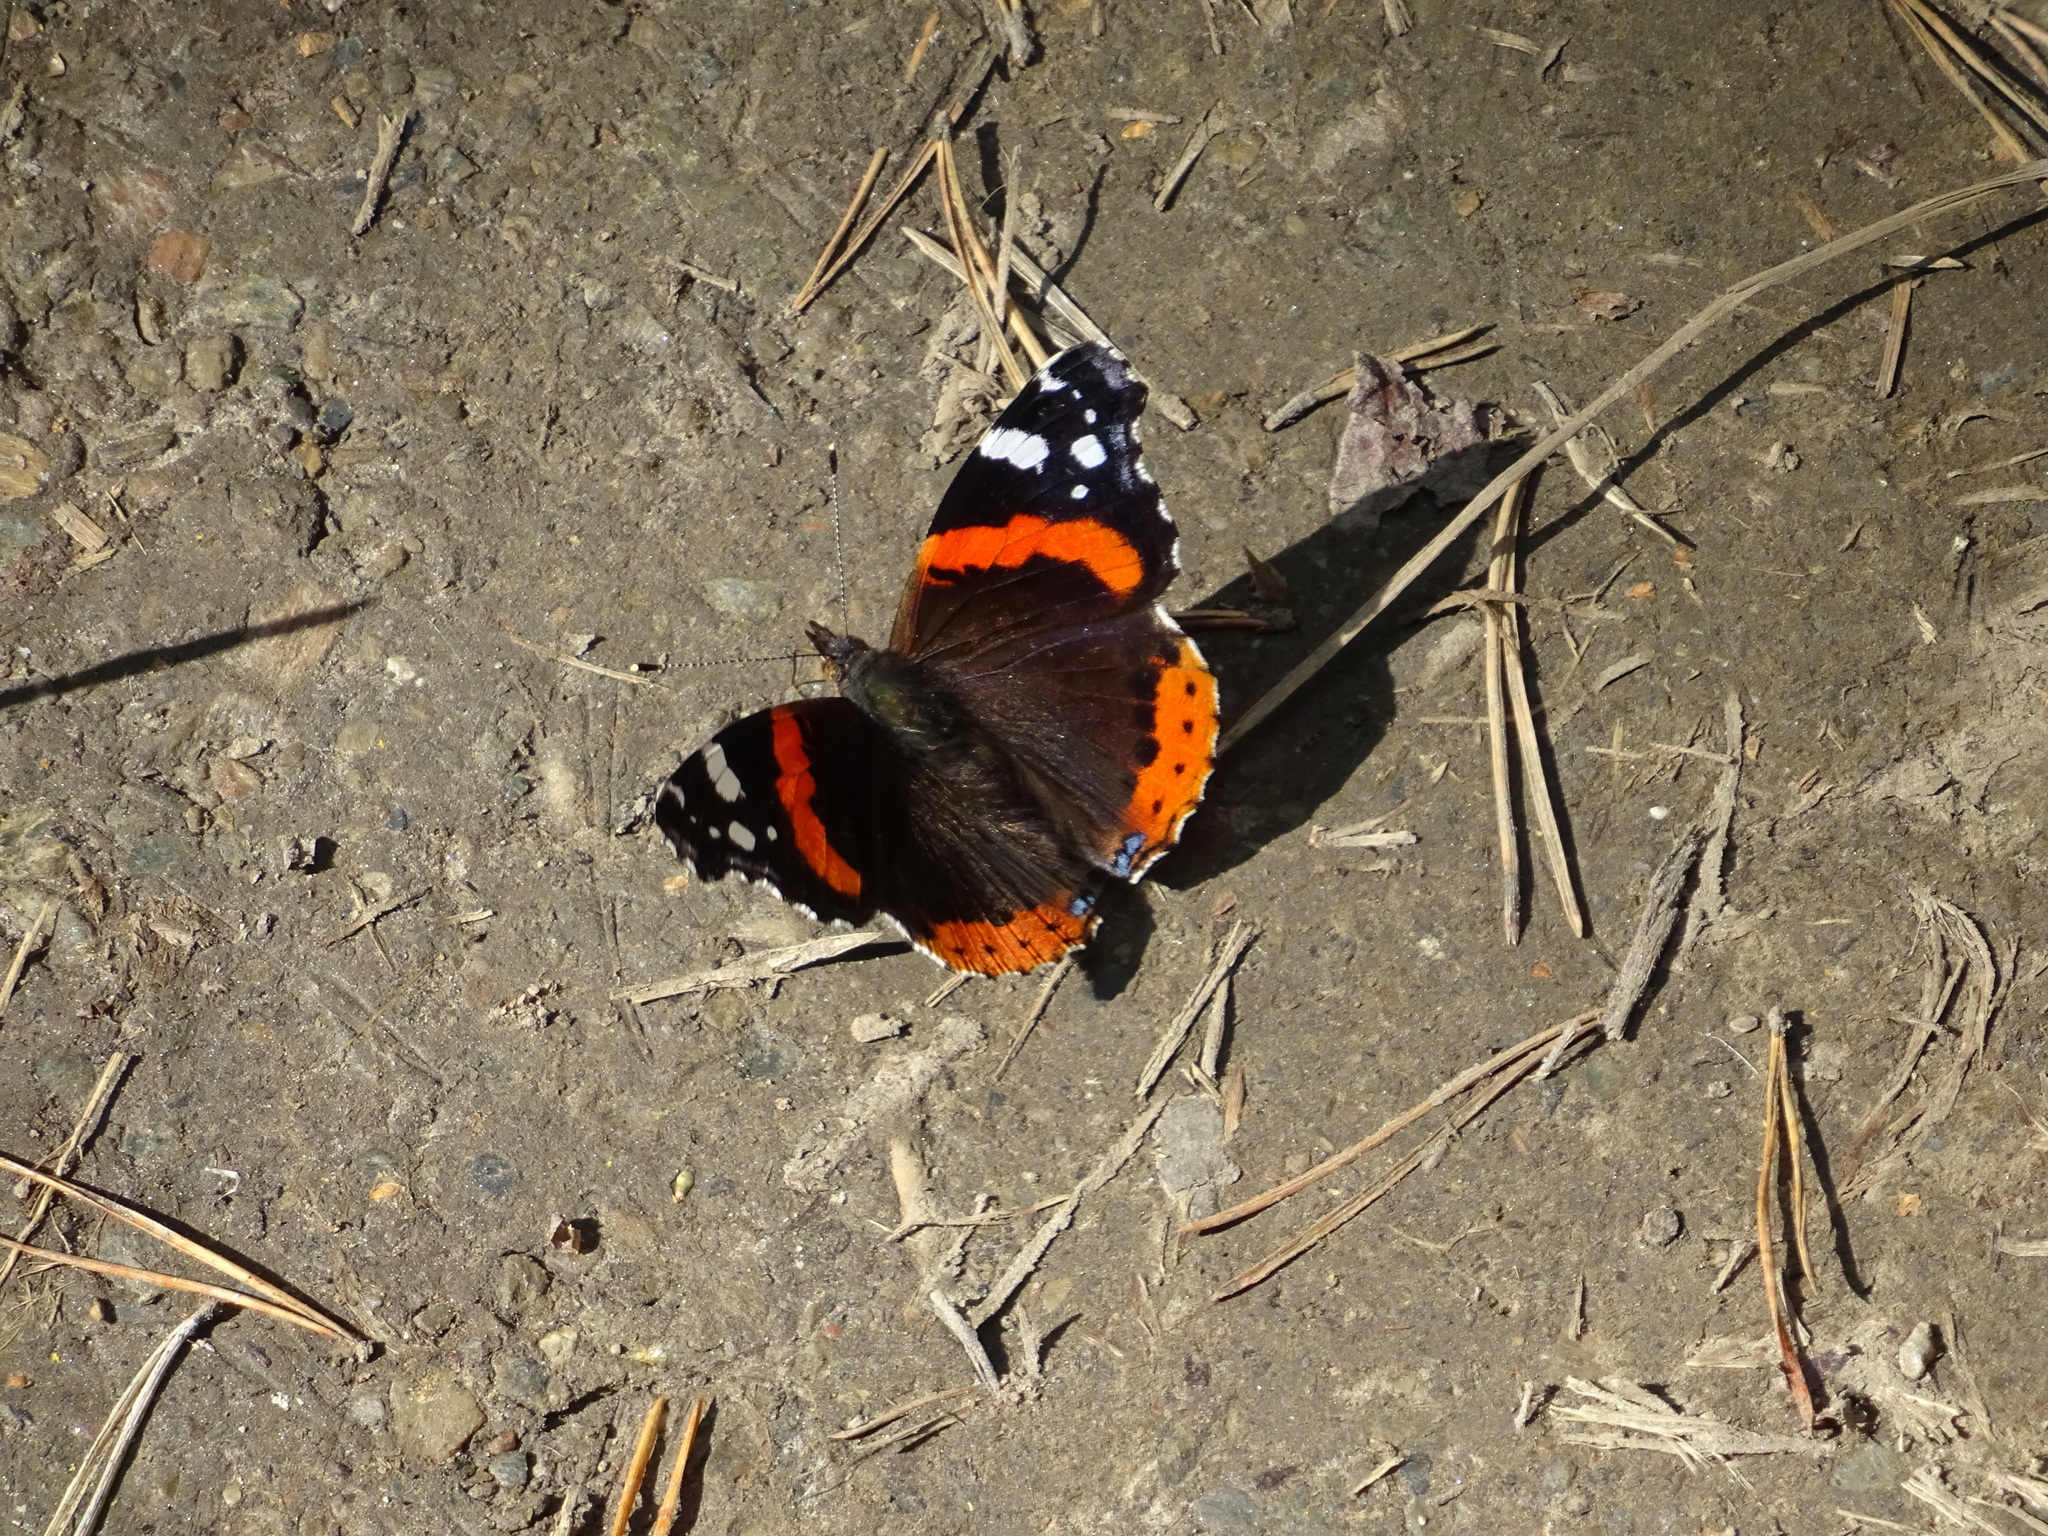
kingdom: Animalia
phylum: Arthropoda
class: Insecta
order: Lepidoptera
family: Nymphalidae
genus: Vanessa
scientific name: Vanessa atalanta
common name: Red admiral
